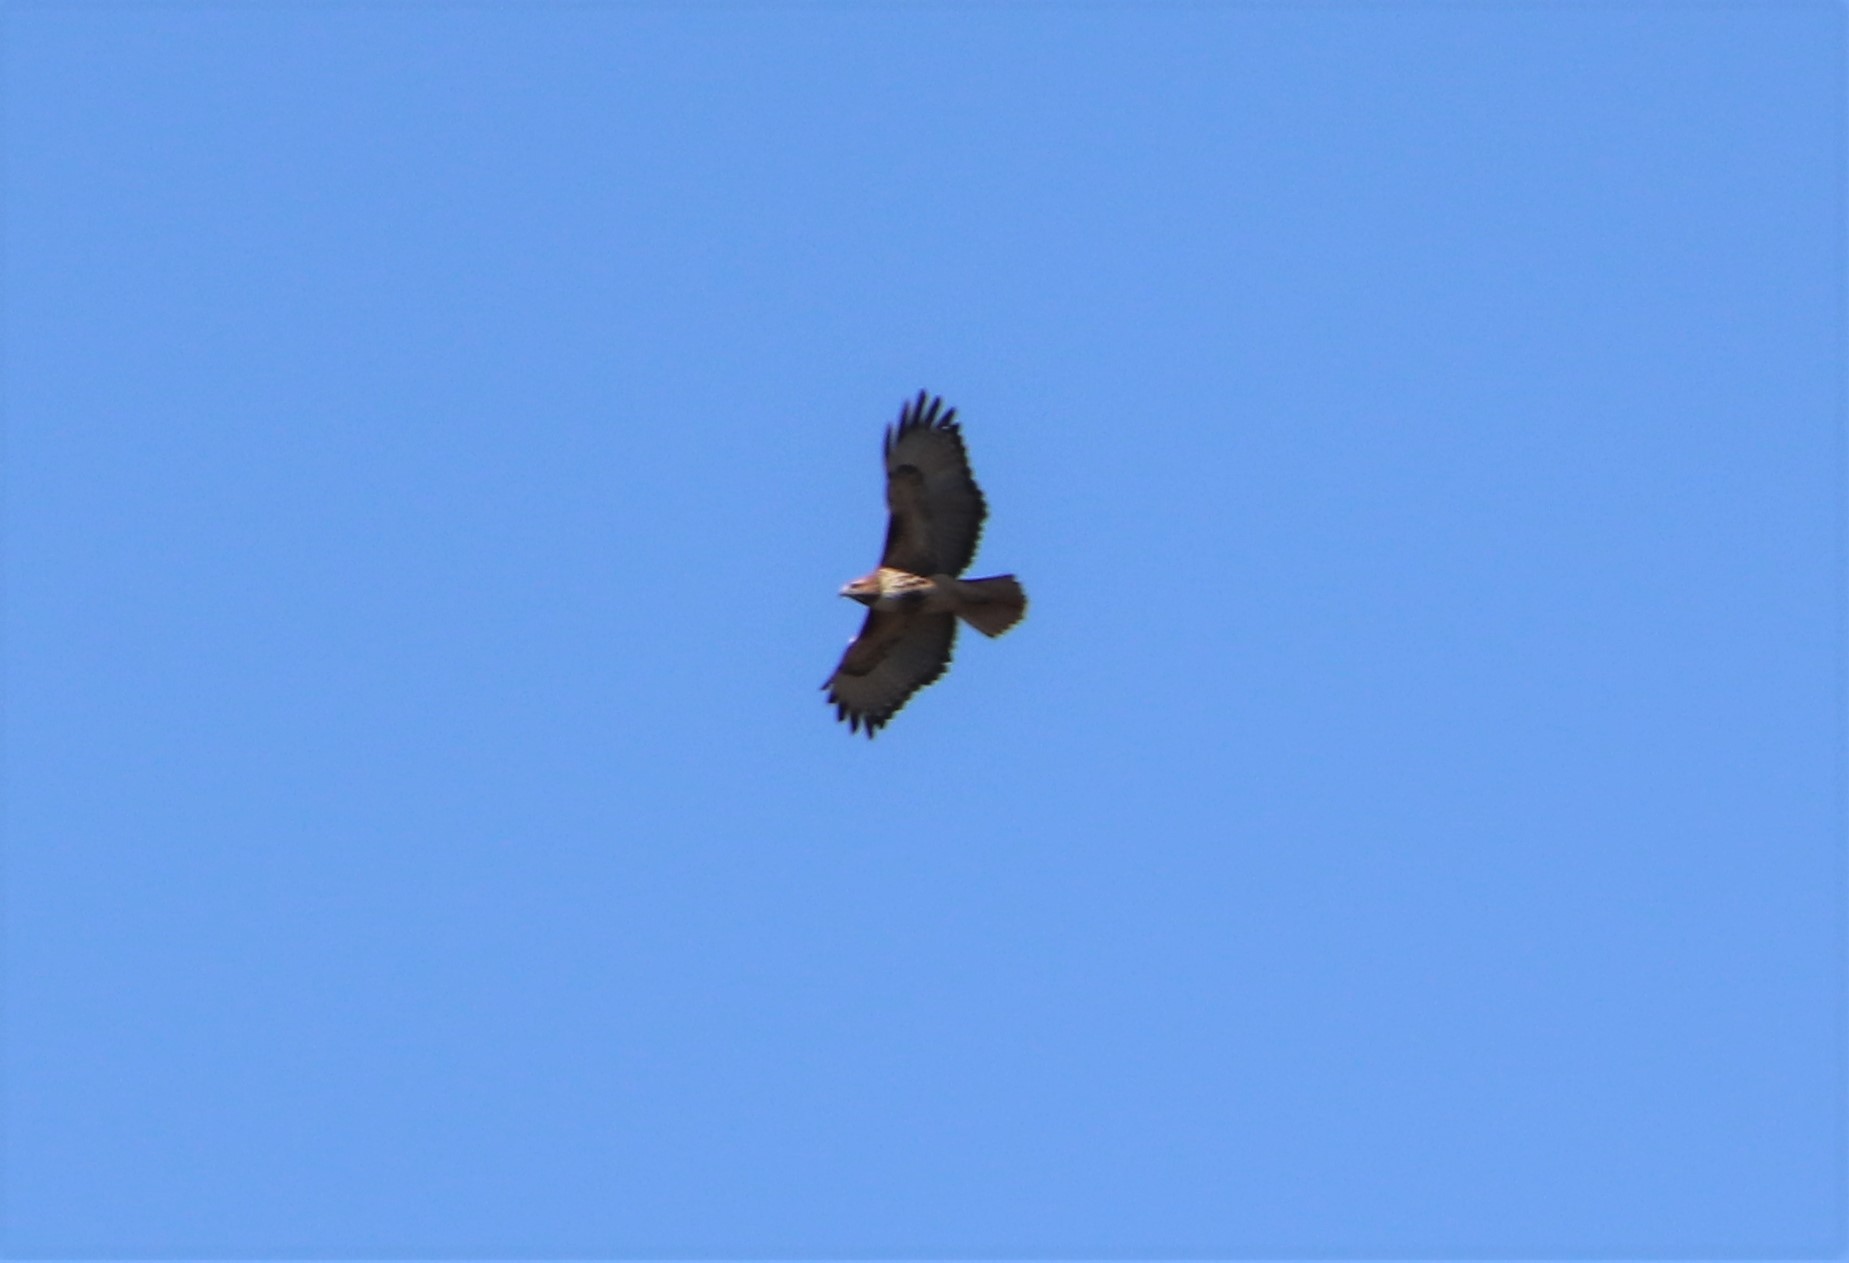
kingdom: Animalia
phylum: Chordata
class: Aves
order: Accipitriformes
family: Accipitridae
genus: Buteo
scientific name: Buteo jamaicensis
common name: Red-tailed hawk
